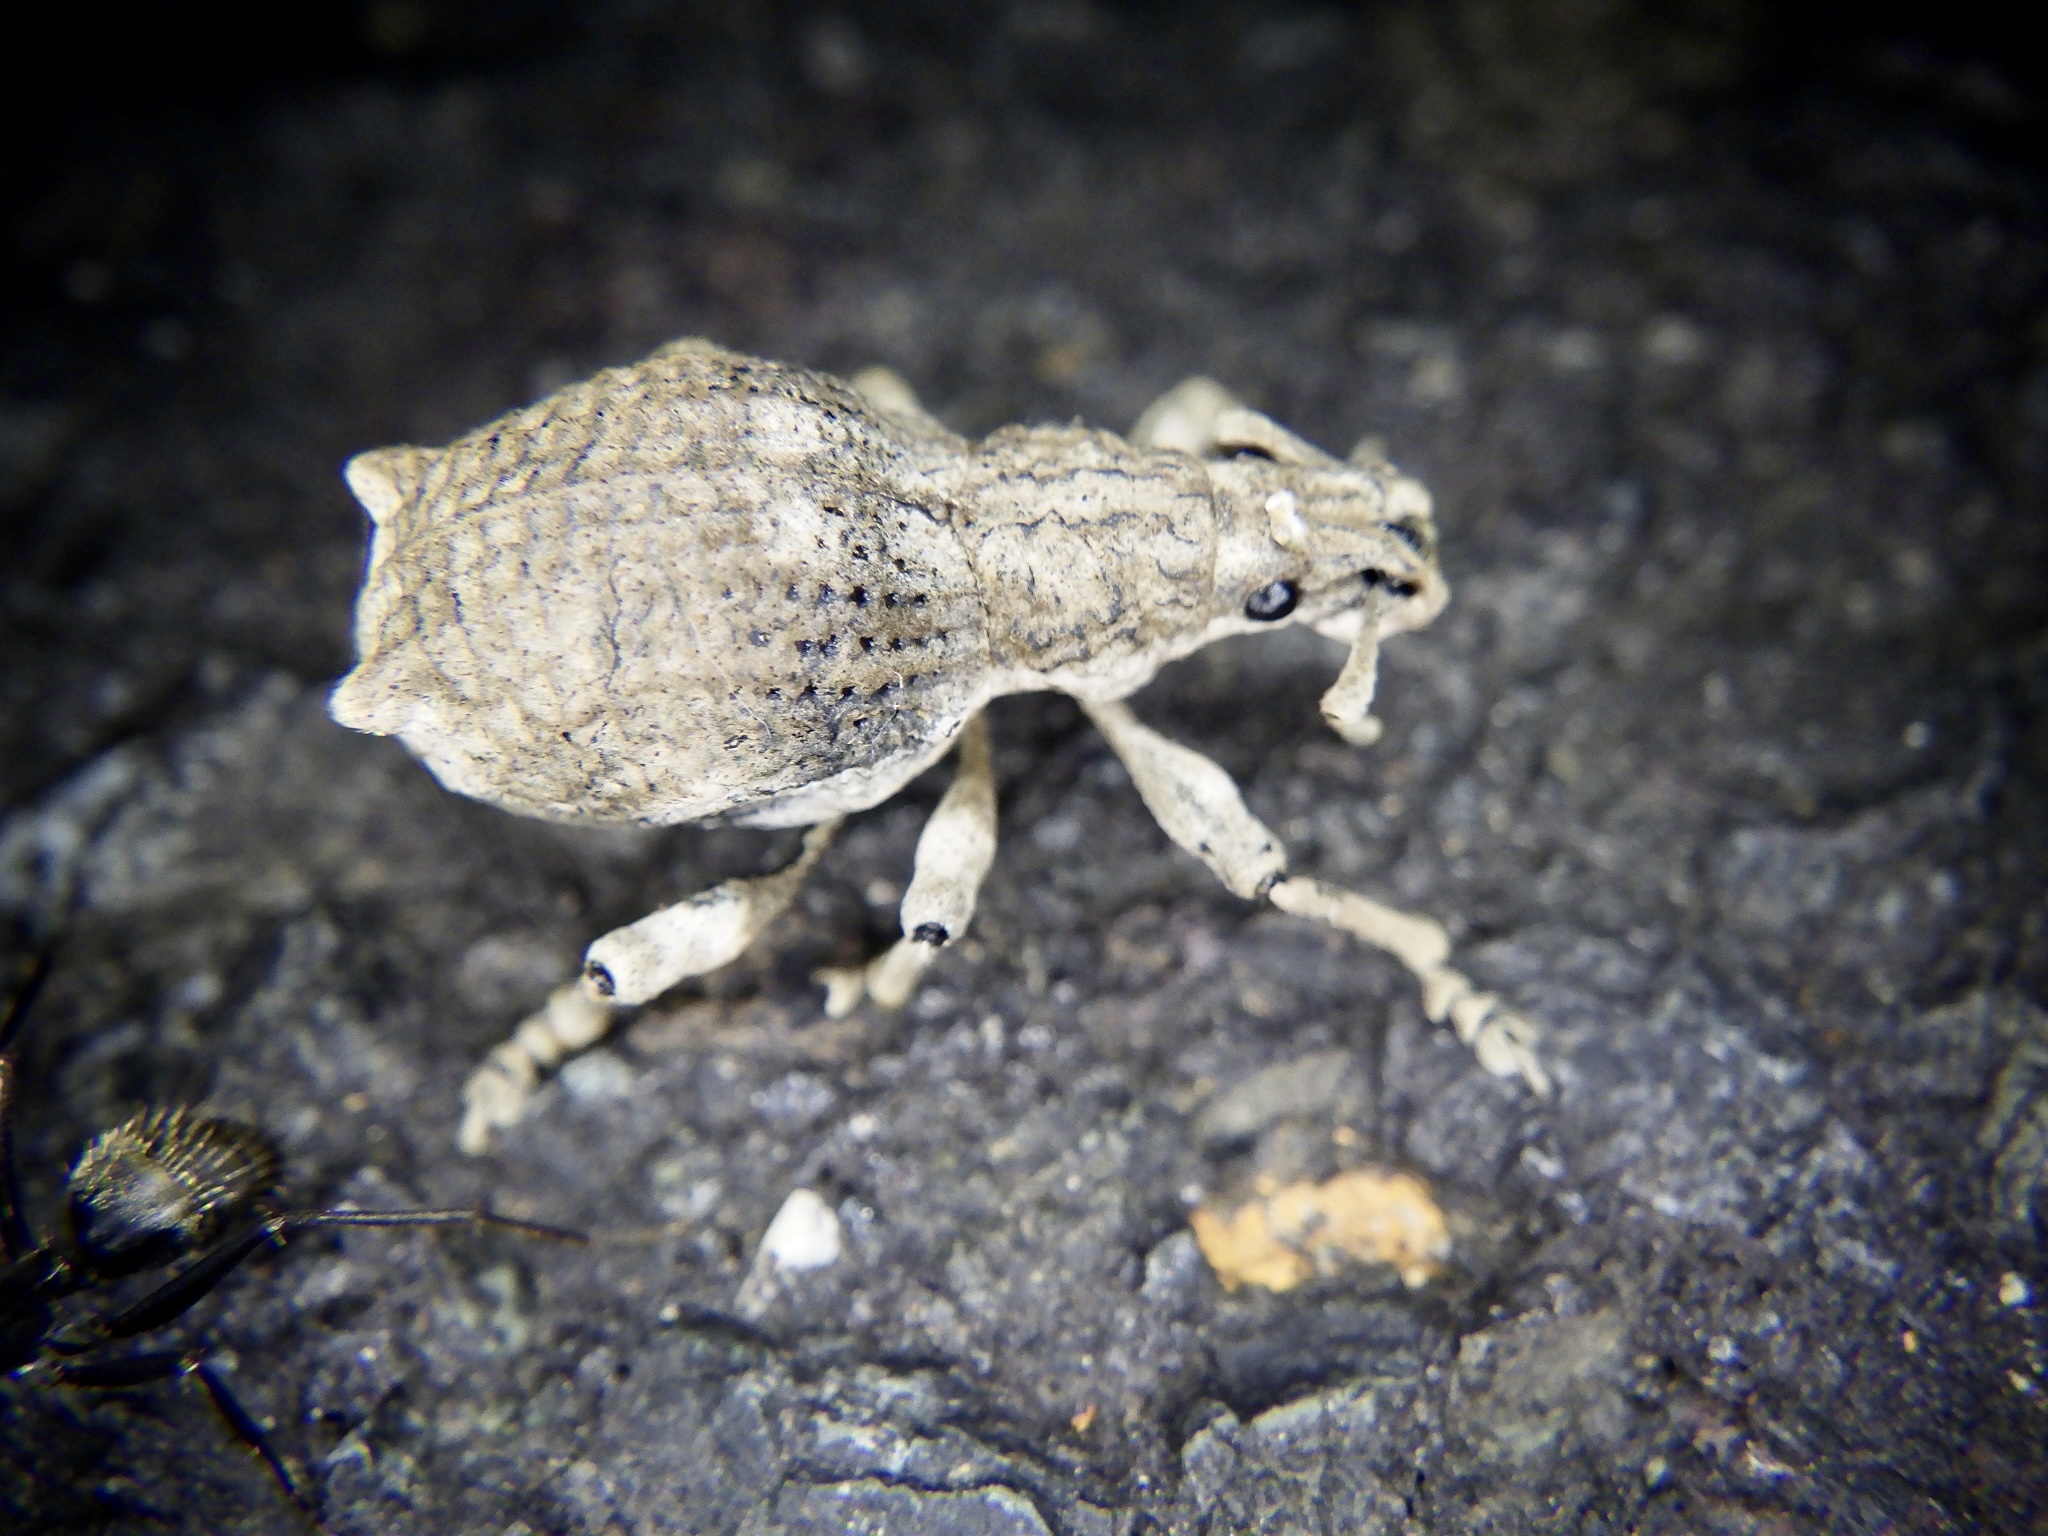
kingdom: Animalia
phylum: Arthropoda
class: Insecta
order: Coleoptera
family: Curculionidae
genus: Episomus
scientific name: Episomus turritus
